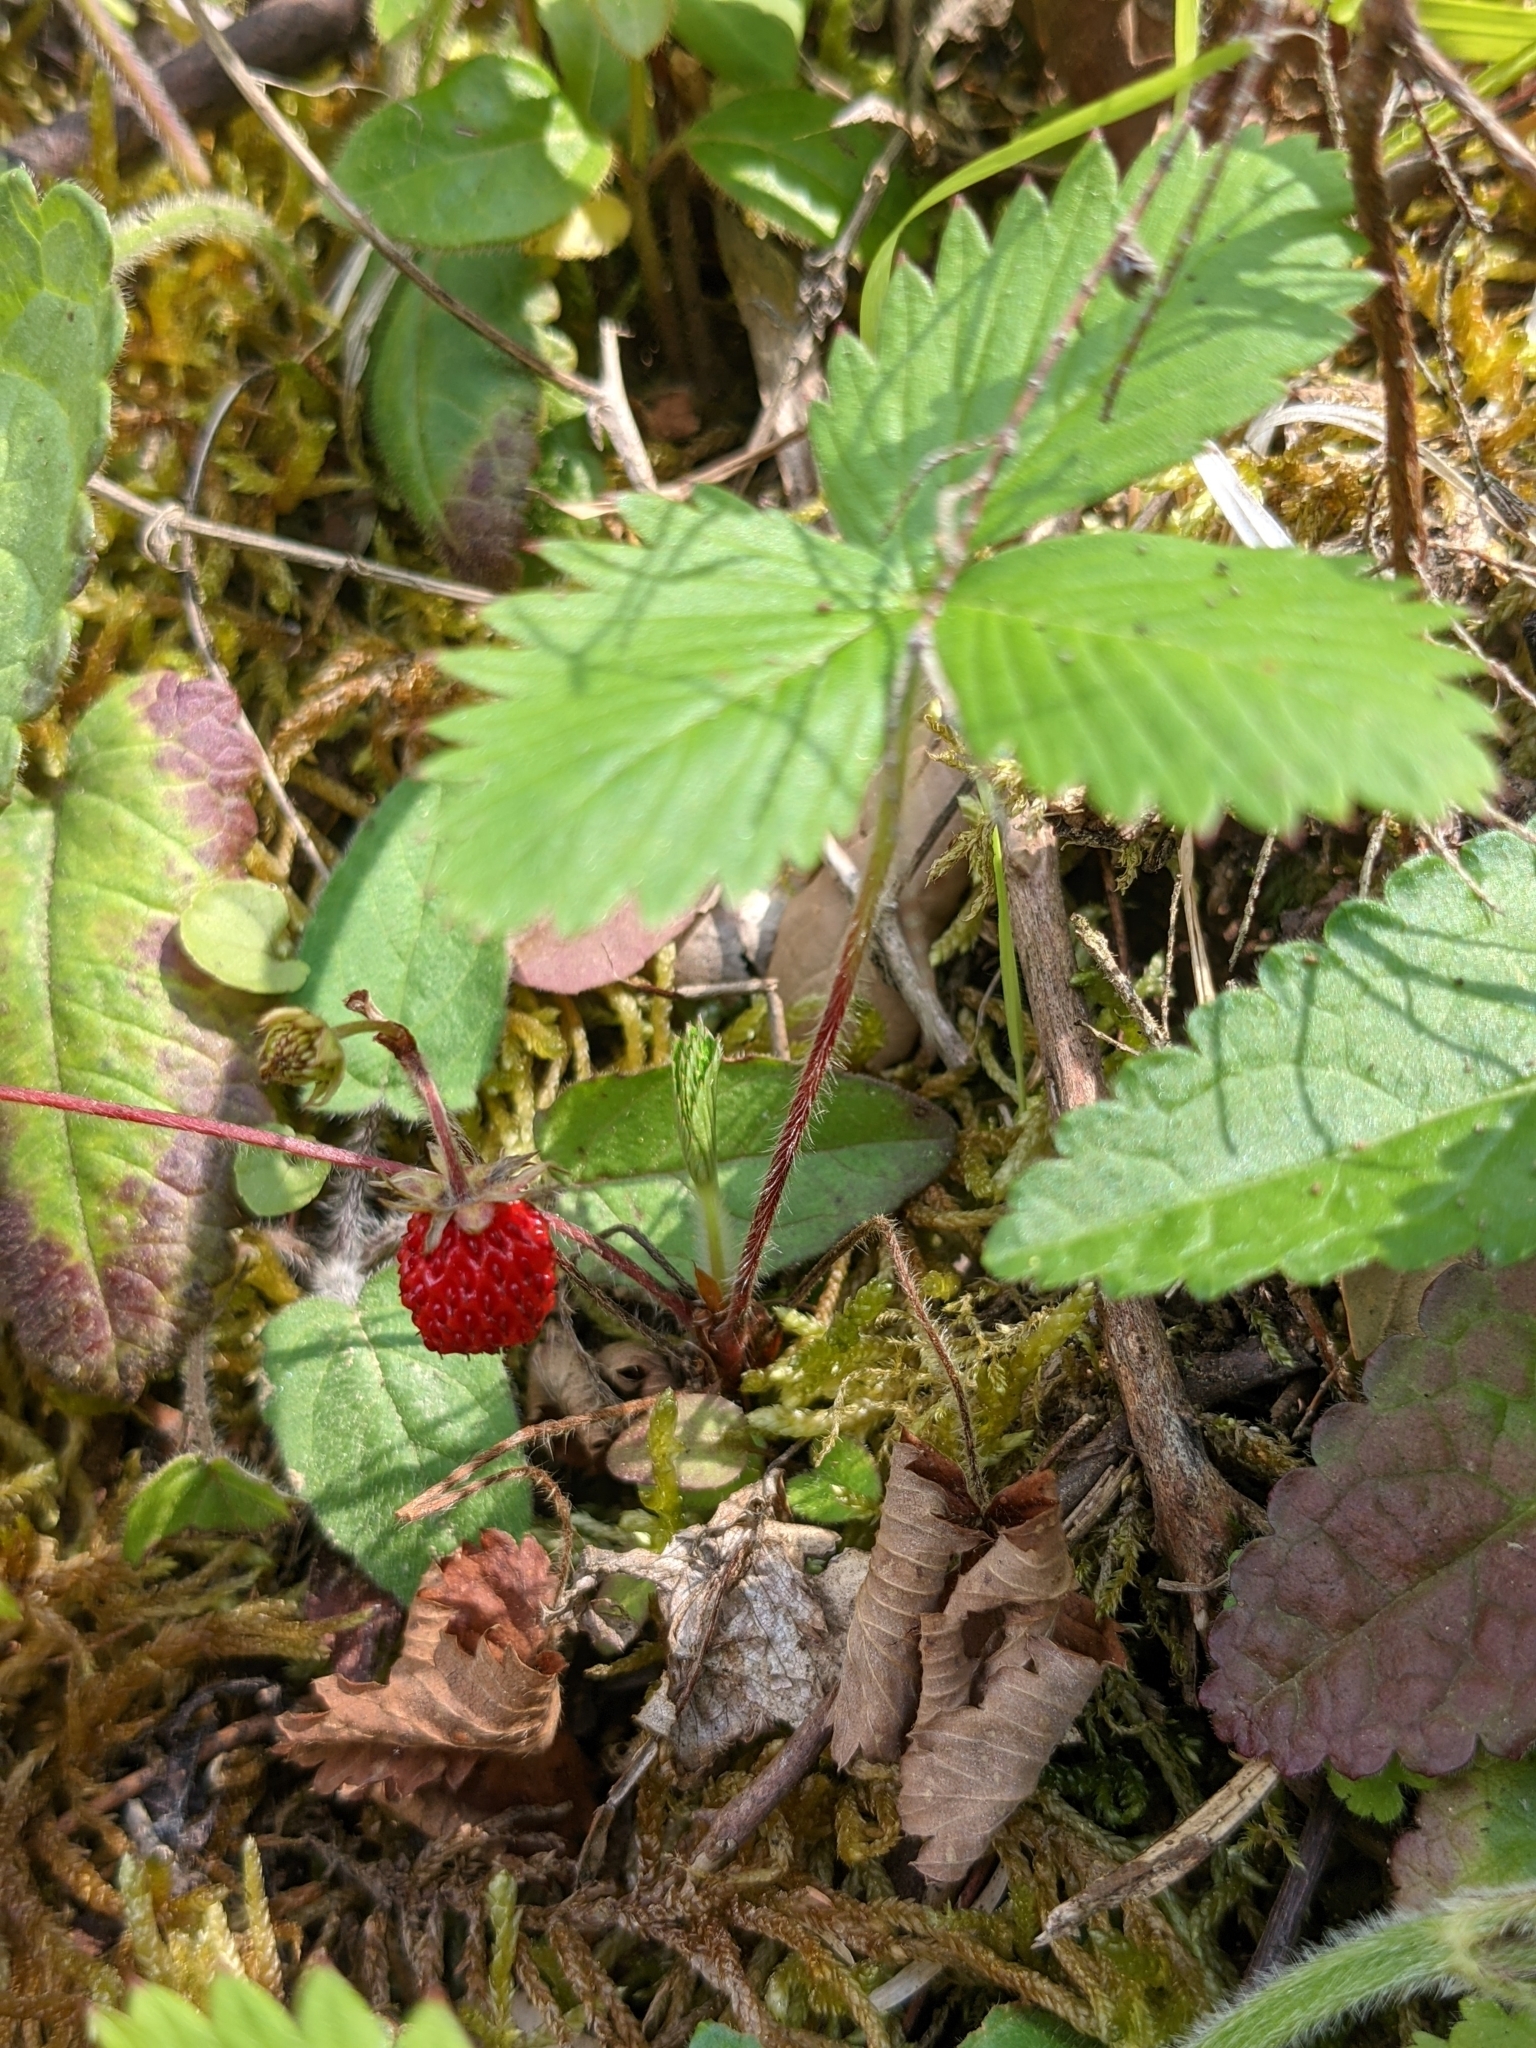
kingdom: Plantae
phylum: Tracheophyta
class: Magnoliopsida
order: Rosales
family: Rosaceae
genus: Fragaria
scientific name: Fragaria vesca
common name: Wild strawberry
